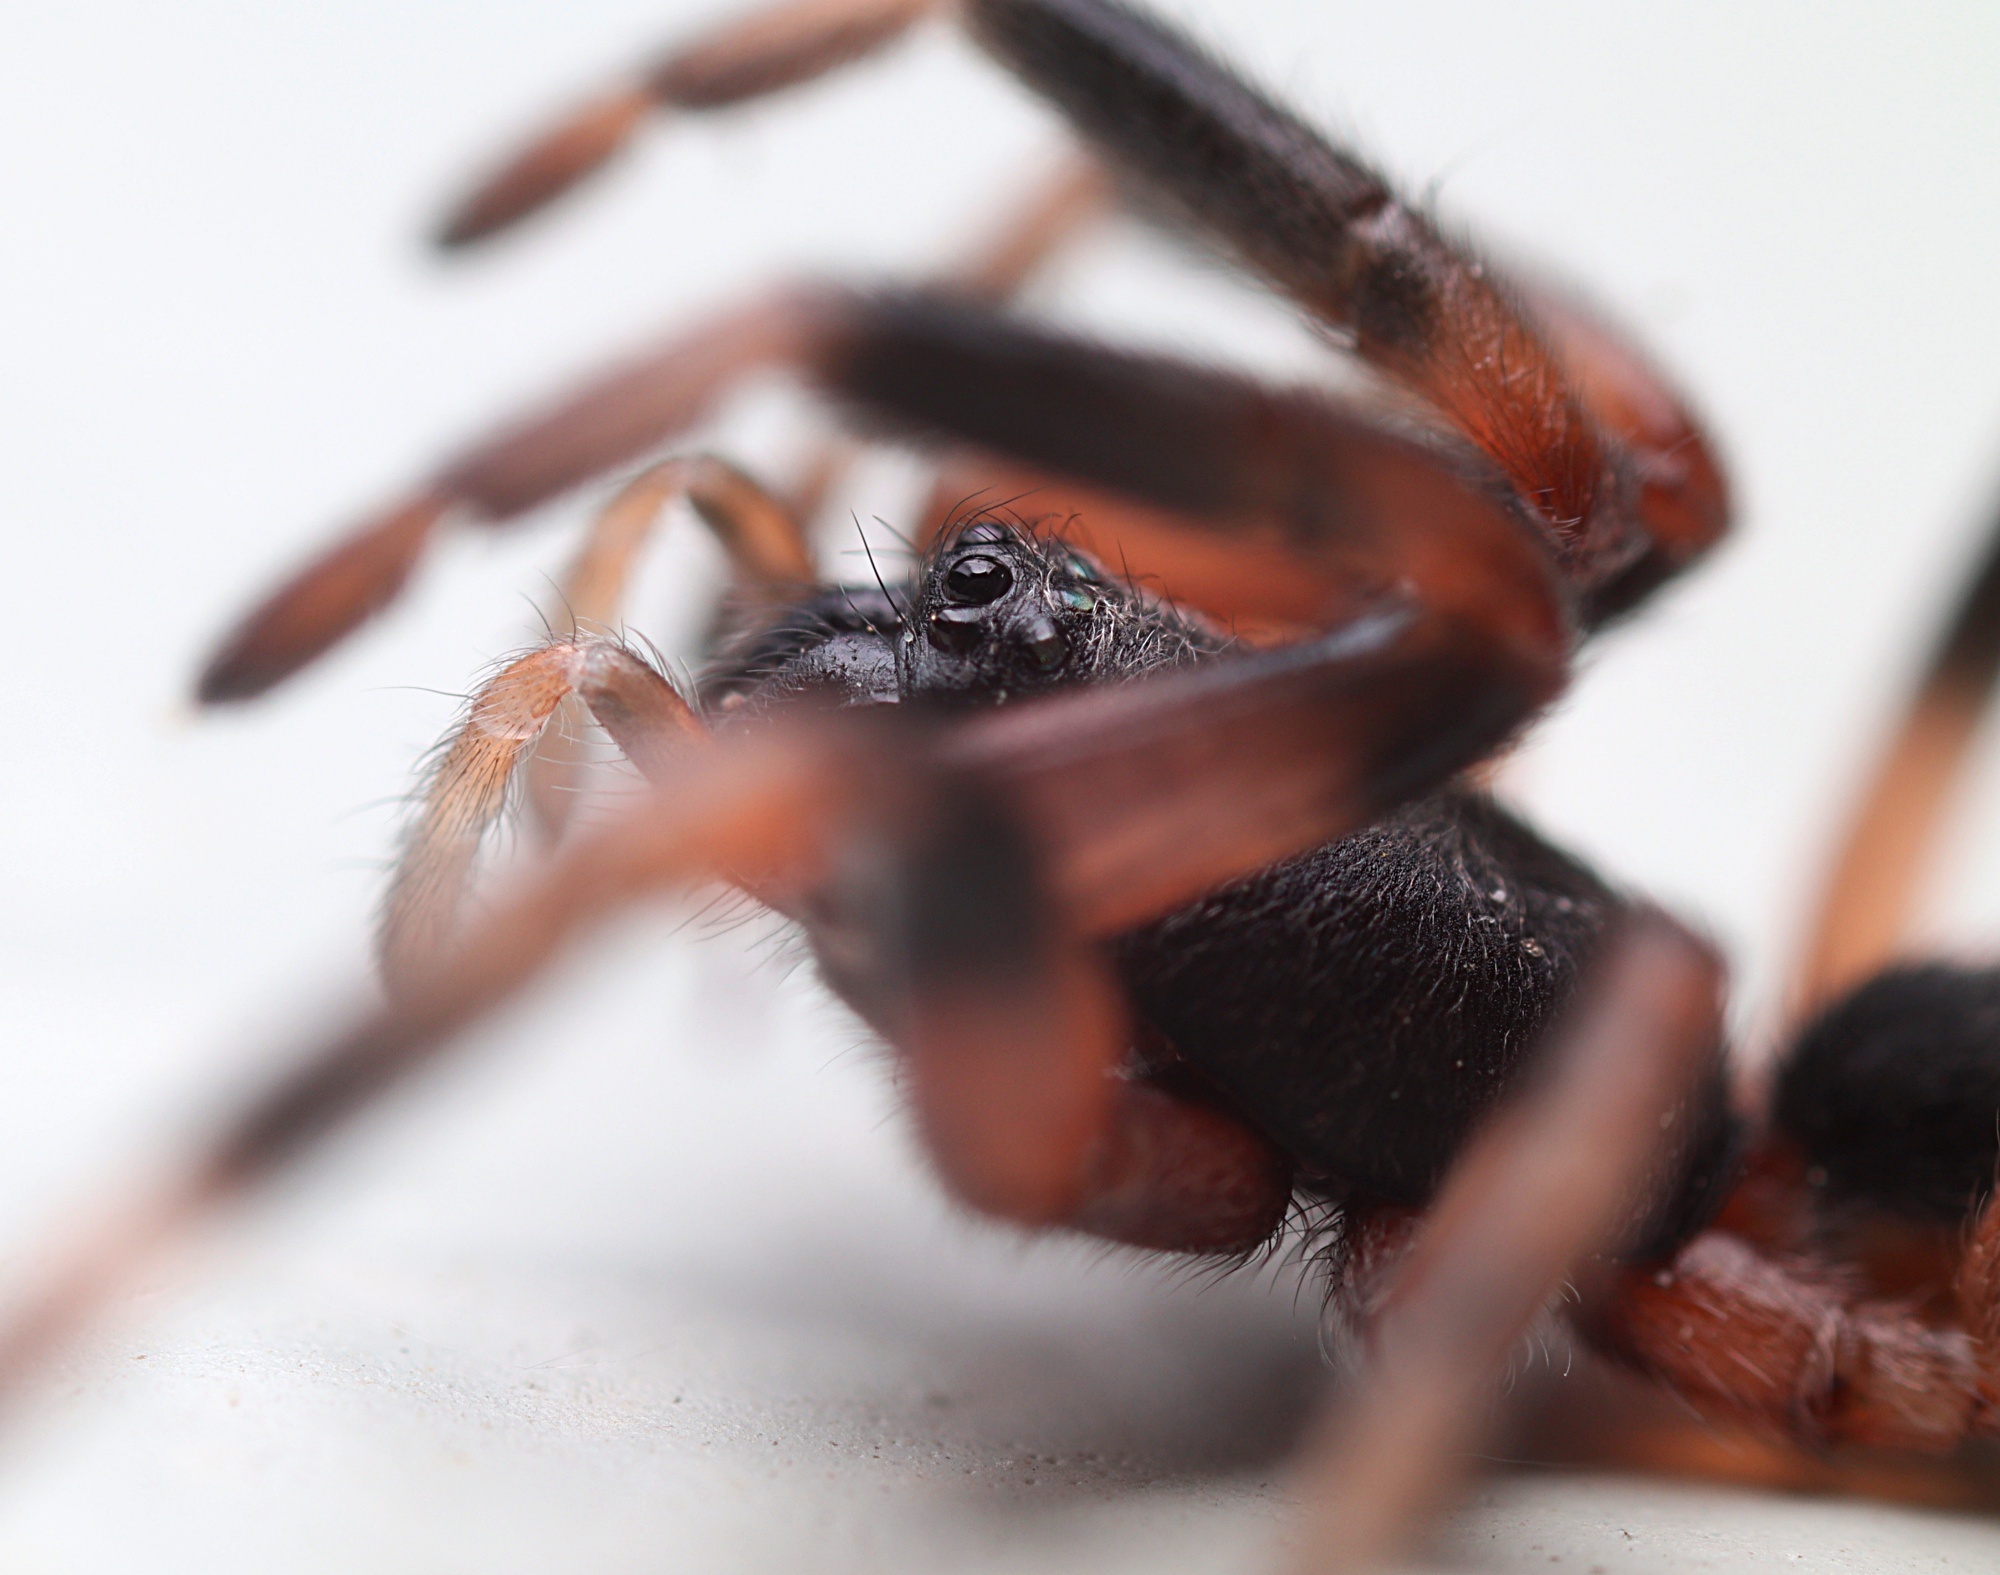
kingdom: Animalia
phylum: Arthropoda
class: Arachnida
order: Araneae
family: Lamponidae
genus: Lampona
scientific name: Lampona murina
